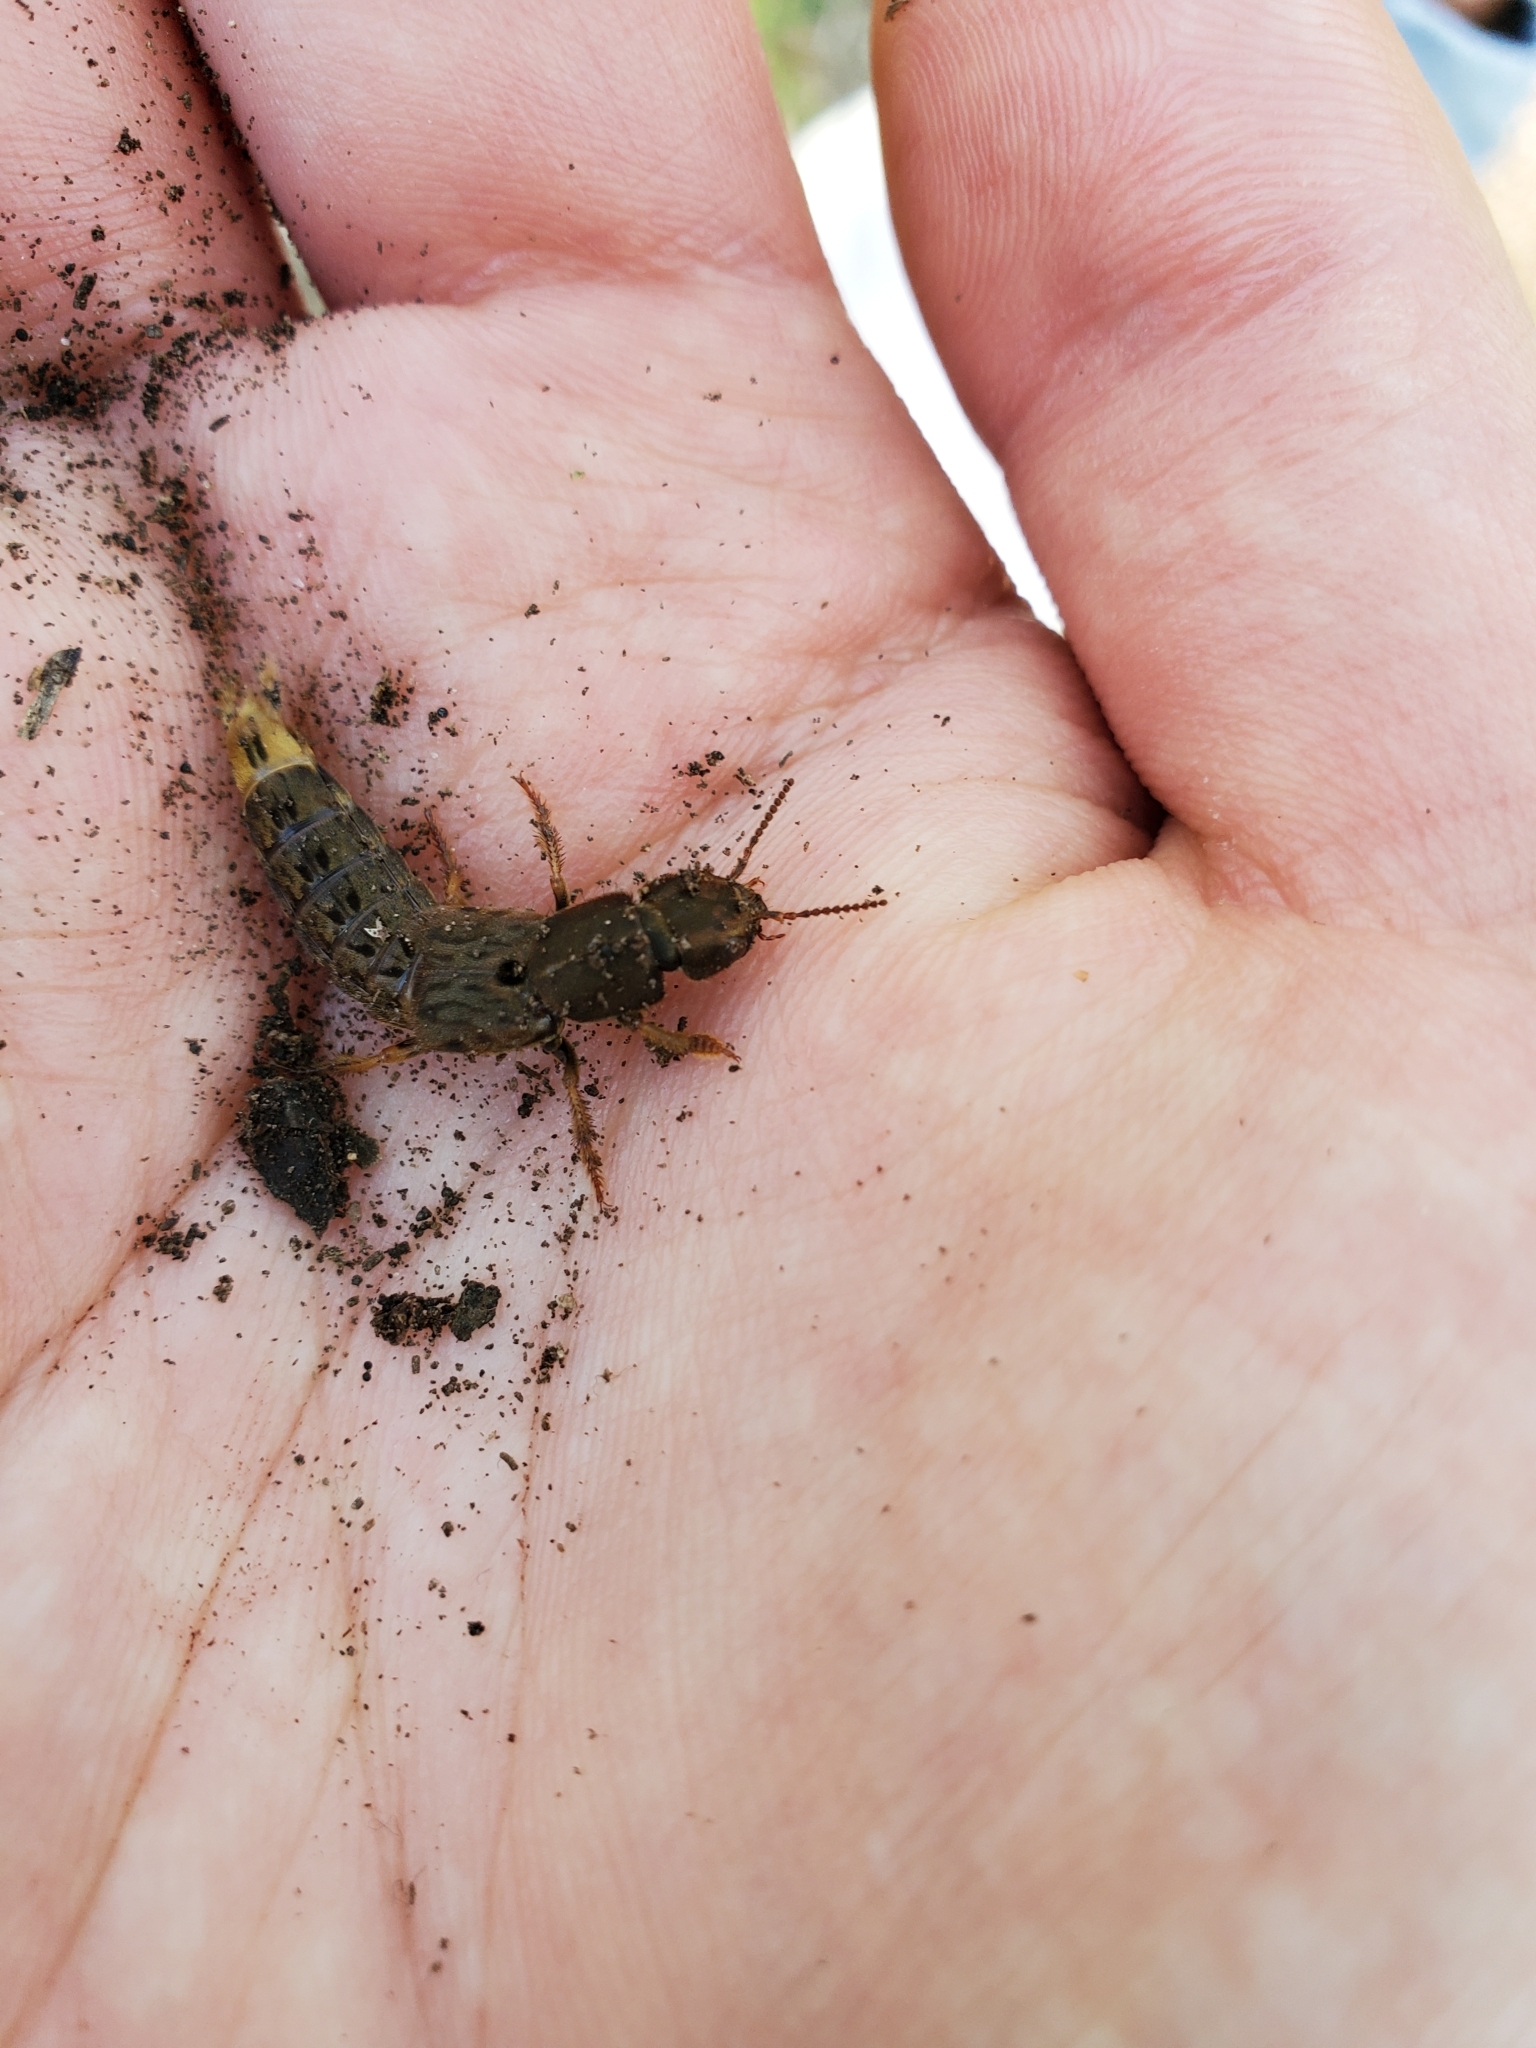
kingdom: Animalia
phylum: Arthropoda
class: Insecta
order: Coleoptera
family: Staphylinidae
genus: Platydracus
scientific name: Platydracus maculosus
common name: Brown rove beetle
